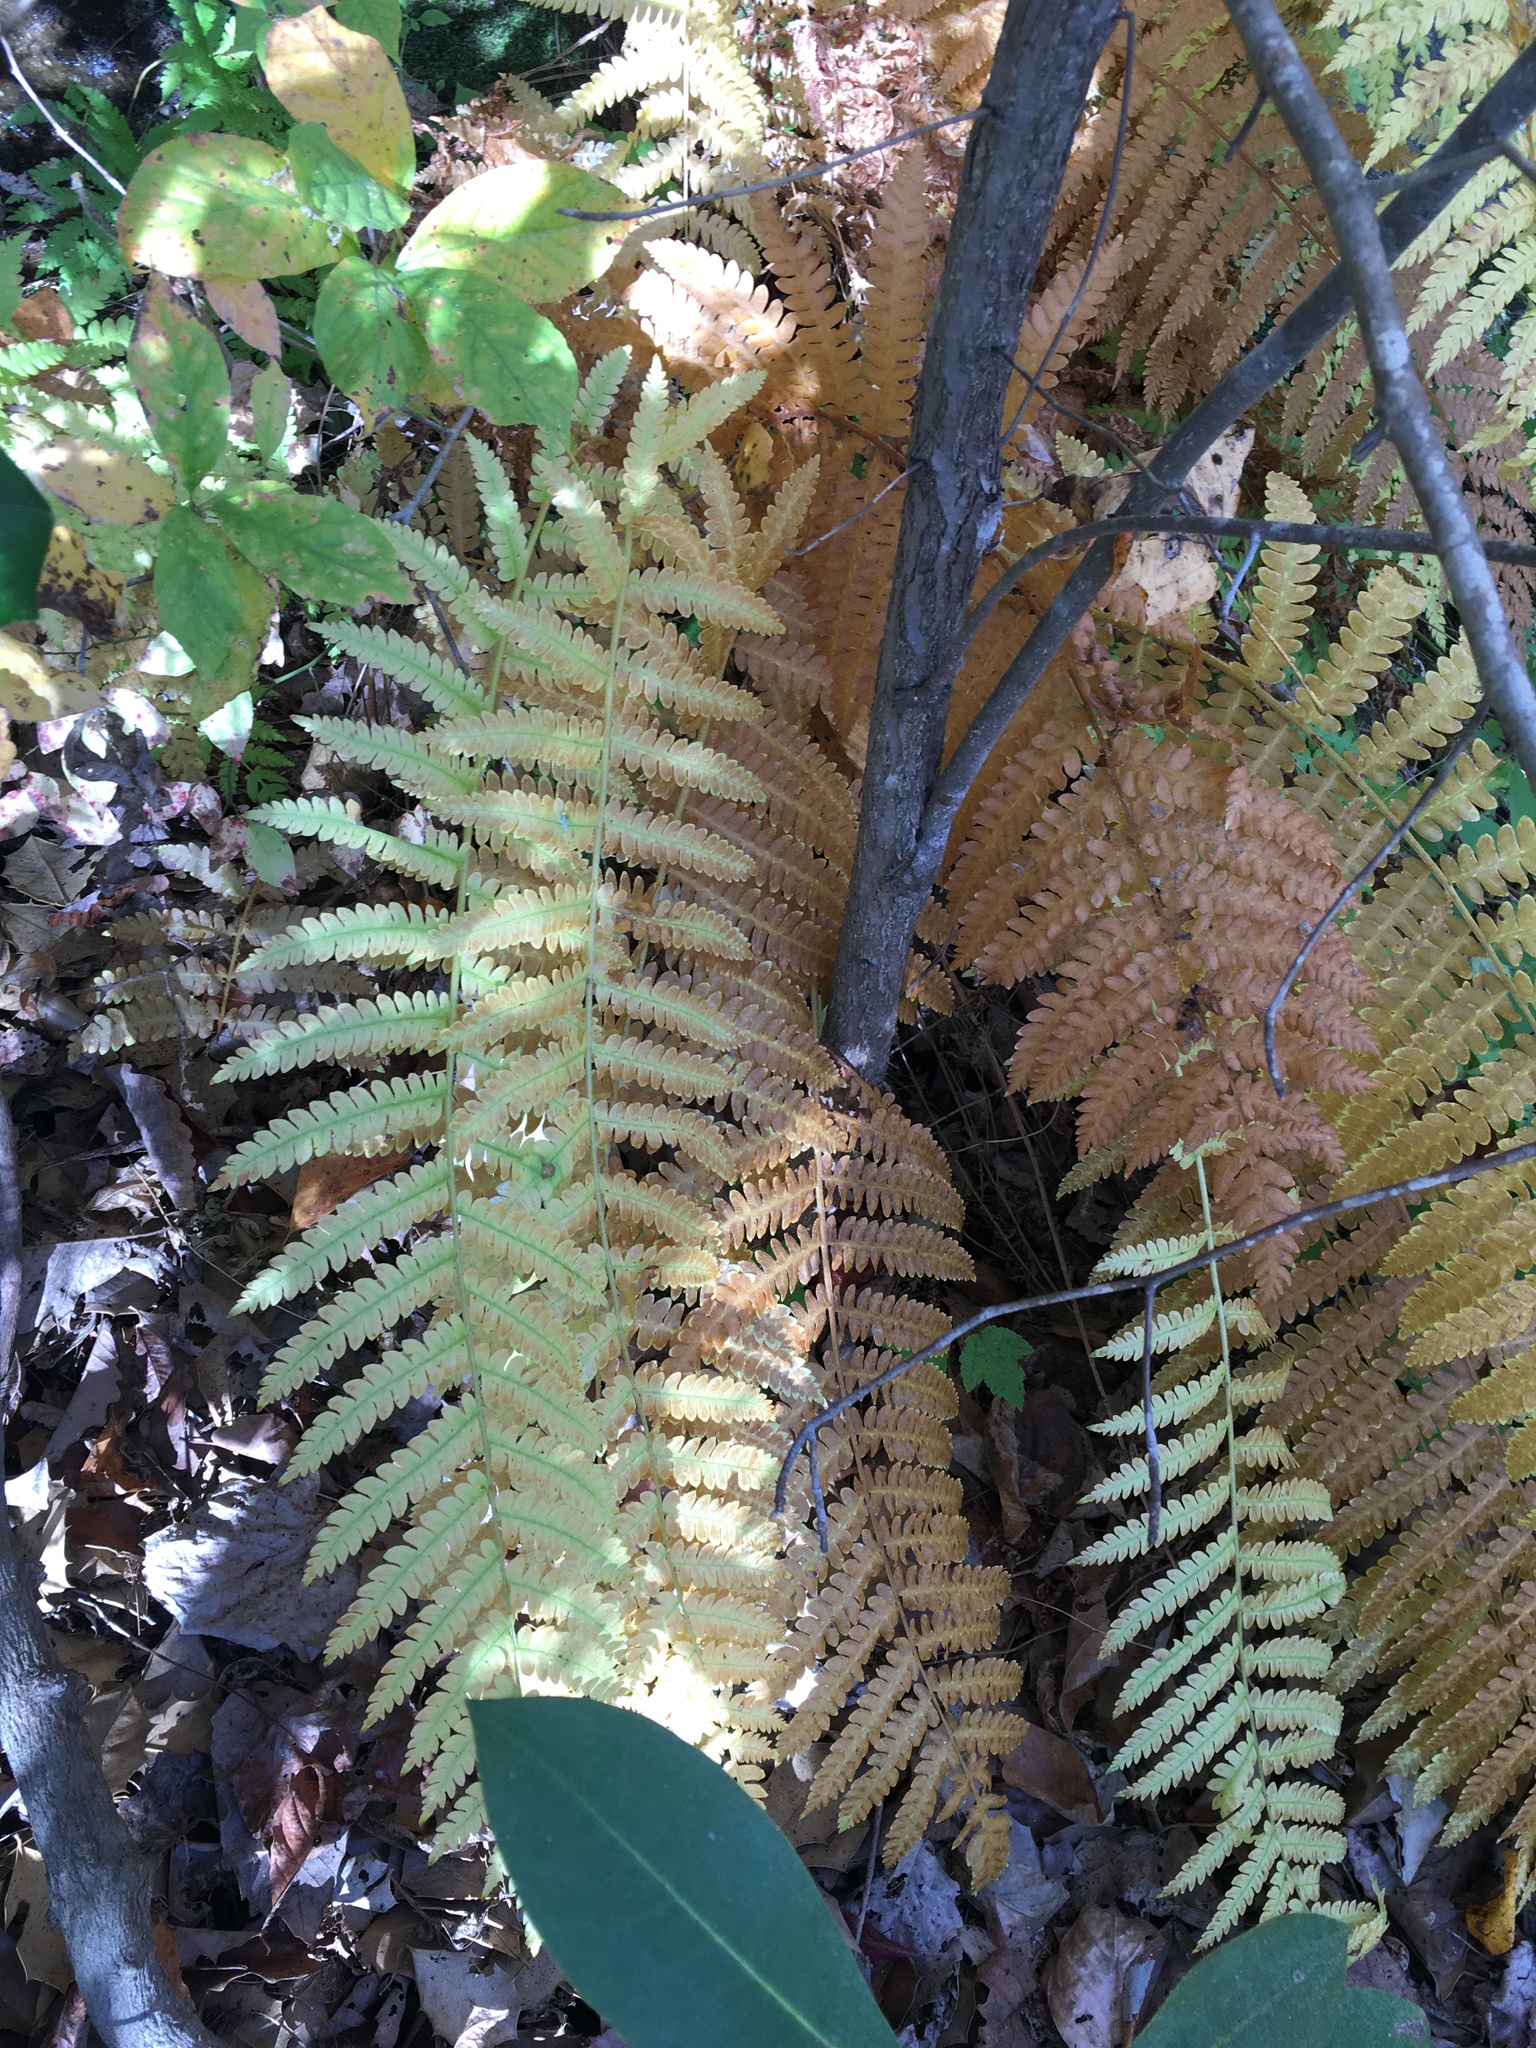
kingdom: Plantae
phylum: Tracheophyta
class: Polypodiopsida
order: Osmundales
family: Osmundaceae
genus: Osmundastrum
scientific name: Osmundastrum cinnamomeum
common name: Cinnamon fern
